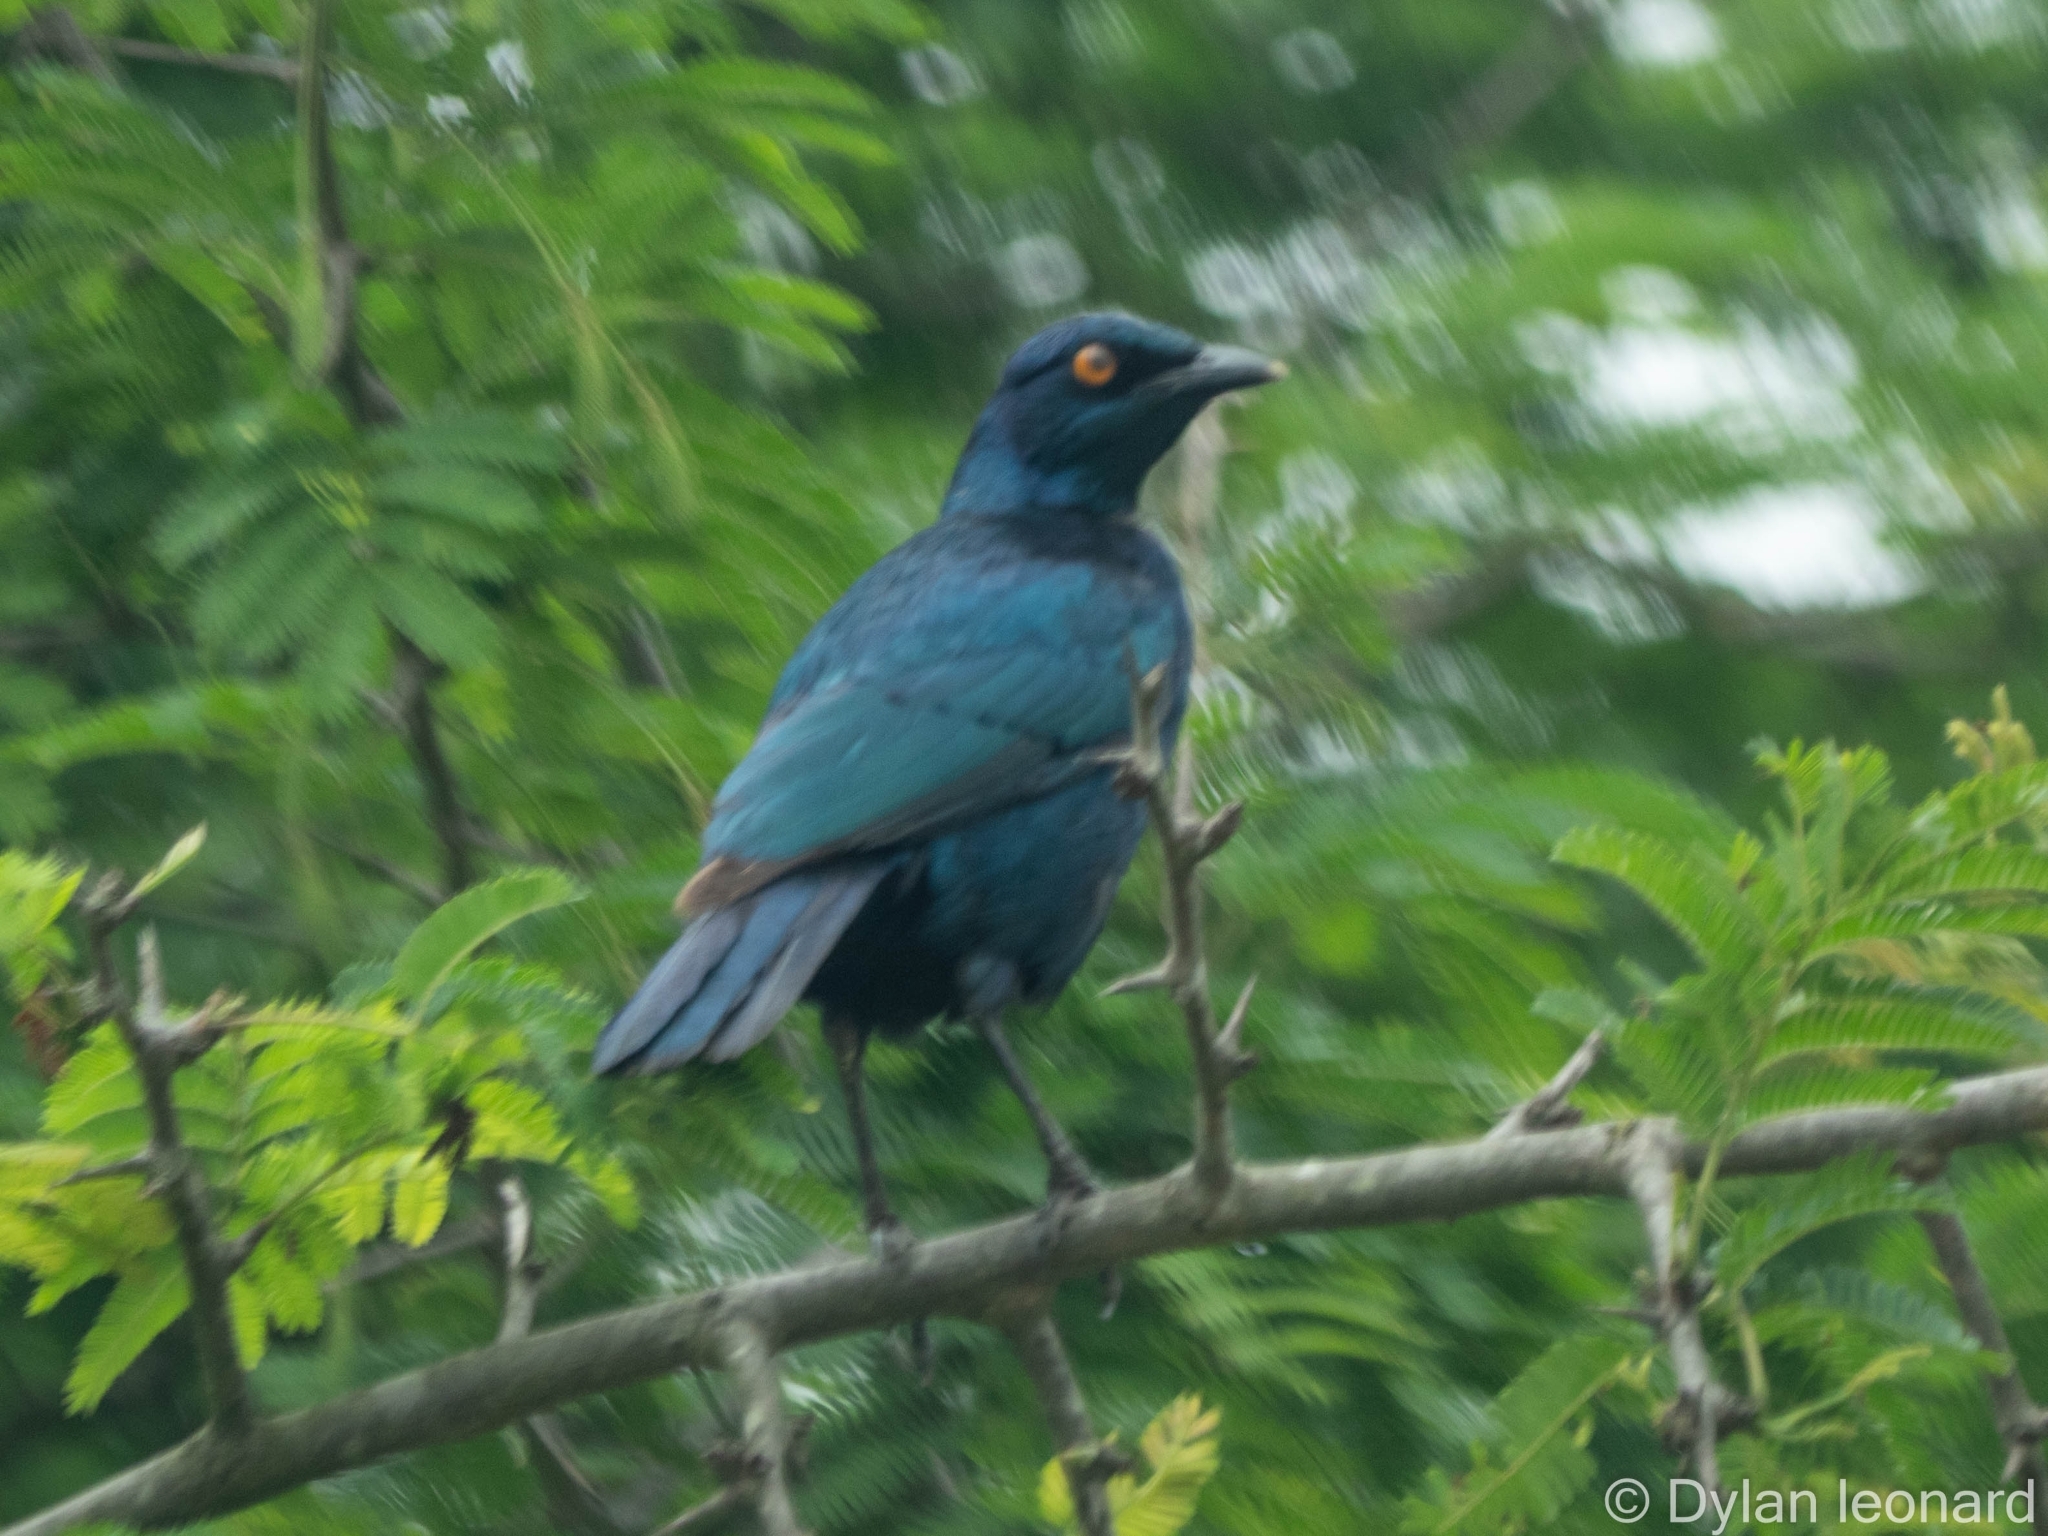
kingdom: Animalia
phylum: Chordata
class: Aves
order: Passeriformes
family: Sturnidae
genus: Lamprotornis
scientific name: Lamprotornis nitens
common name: Cape starling
